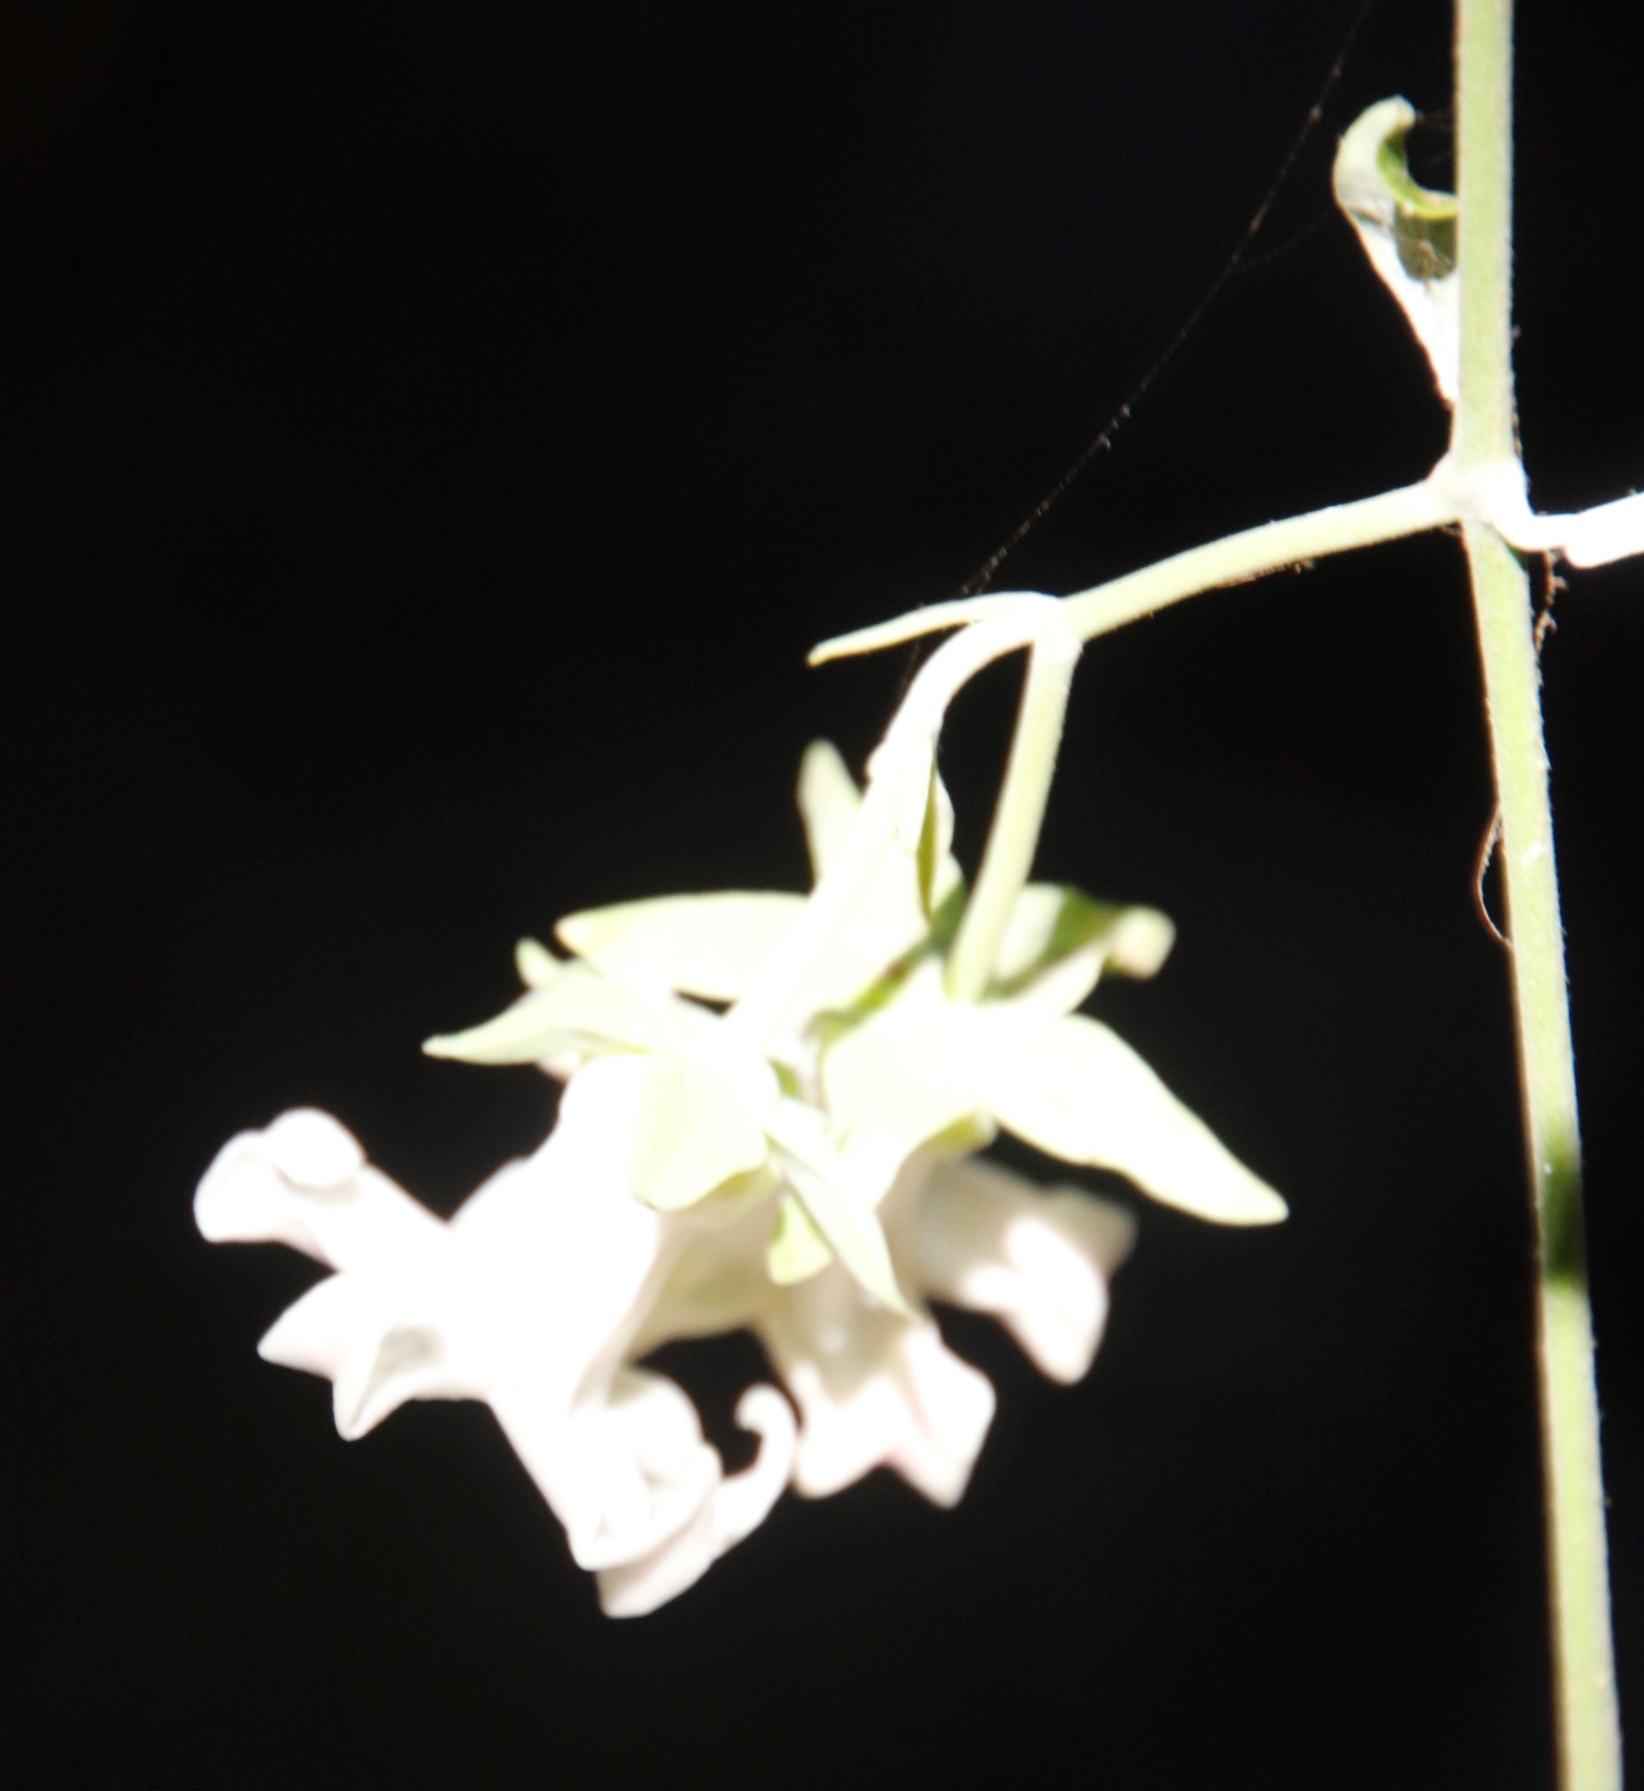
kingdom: Plantae
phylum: Tracheophyta
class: Magnoliopsida
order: Gentianales
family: Apocynaceae
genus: Araujia
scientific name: Araujia sericifera
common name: White bladderflower
